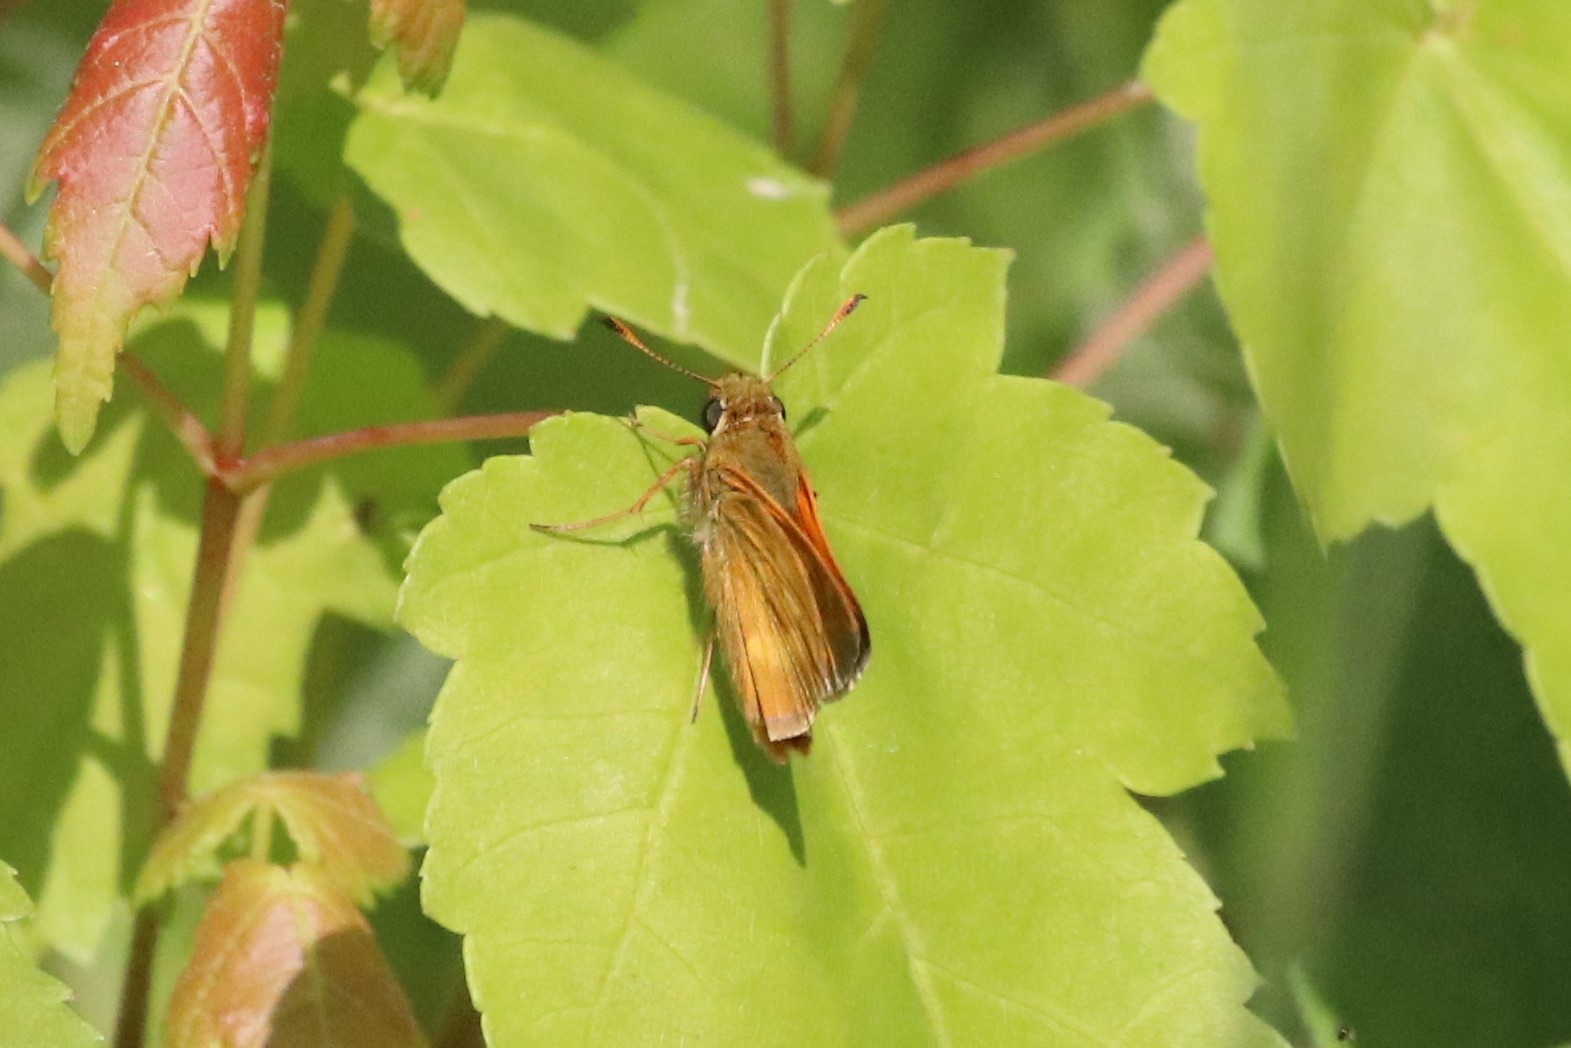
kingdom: Animalia
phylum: Arthropoda
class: Insecta
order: Lepidoptera
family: Hesperiidae
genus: Polites
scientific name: Polites mystic
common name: Long dash
